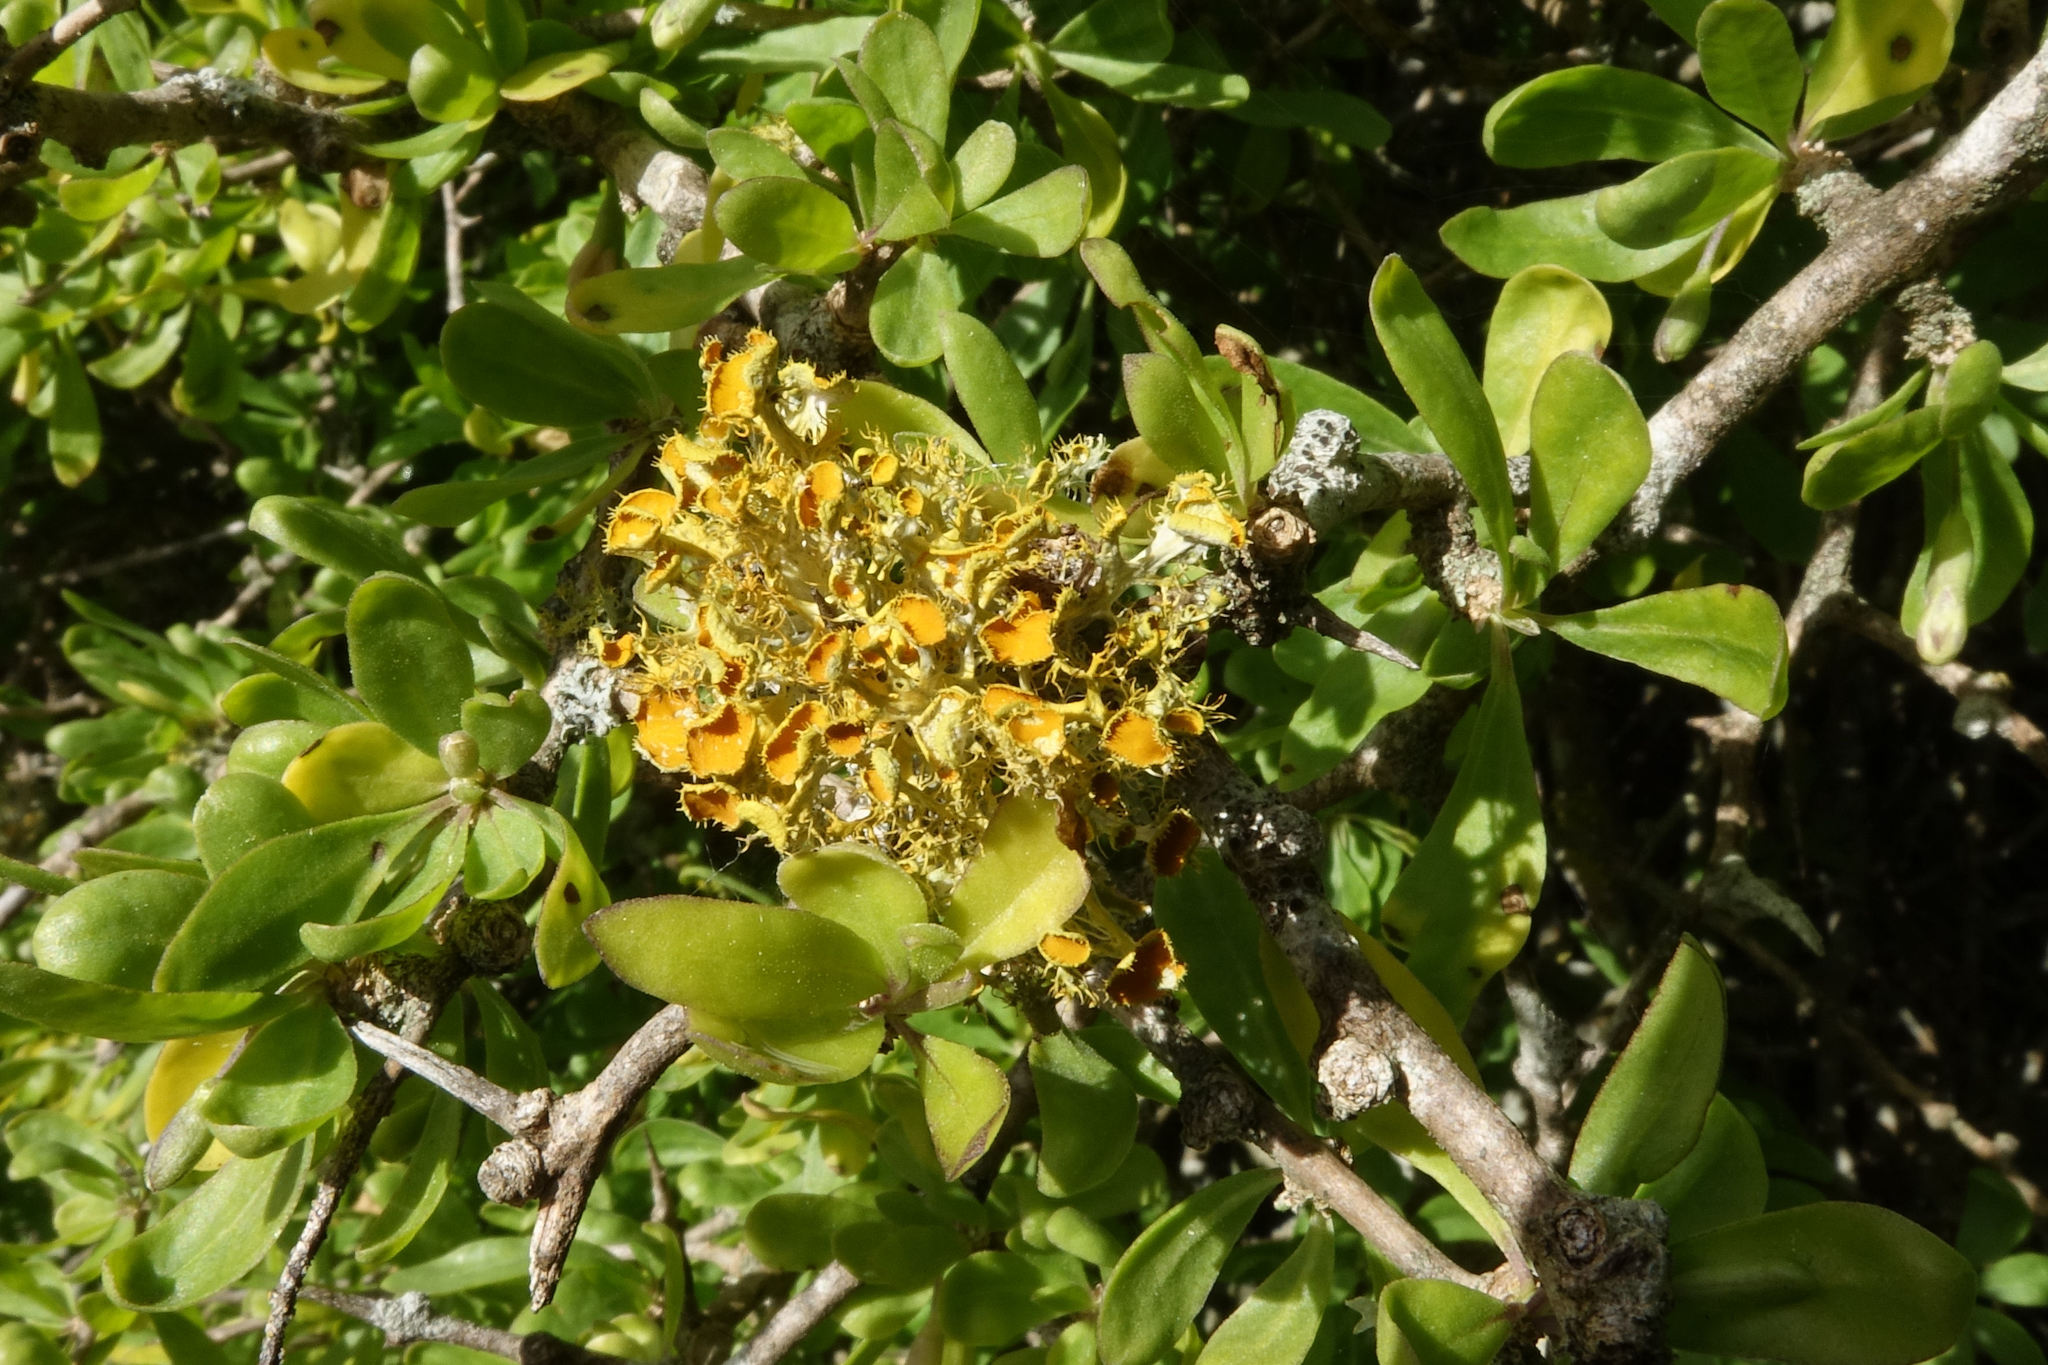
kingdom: Fungi
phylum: Ascomycota
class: Lecanoromycetes
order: Teloschistales
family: Teloschistaceae
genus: Niorma
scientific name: Niorma chrysophthalma
